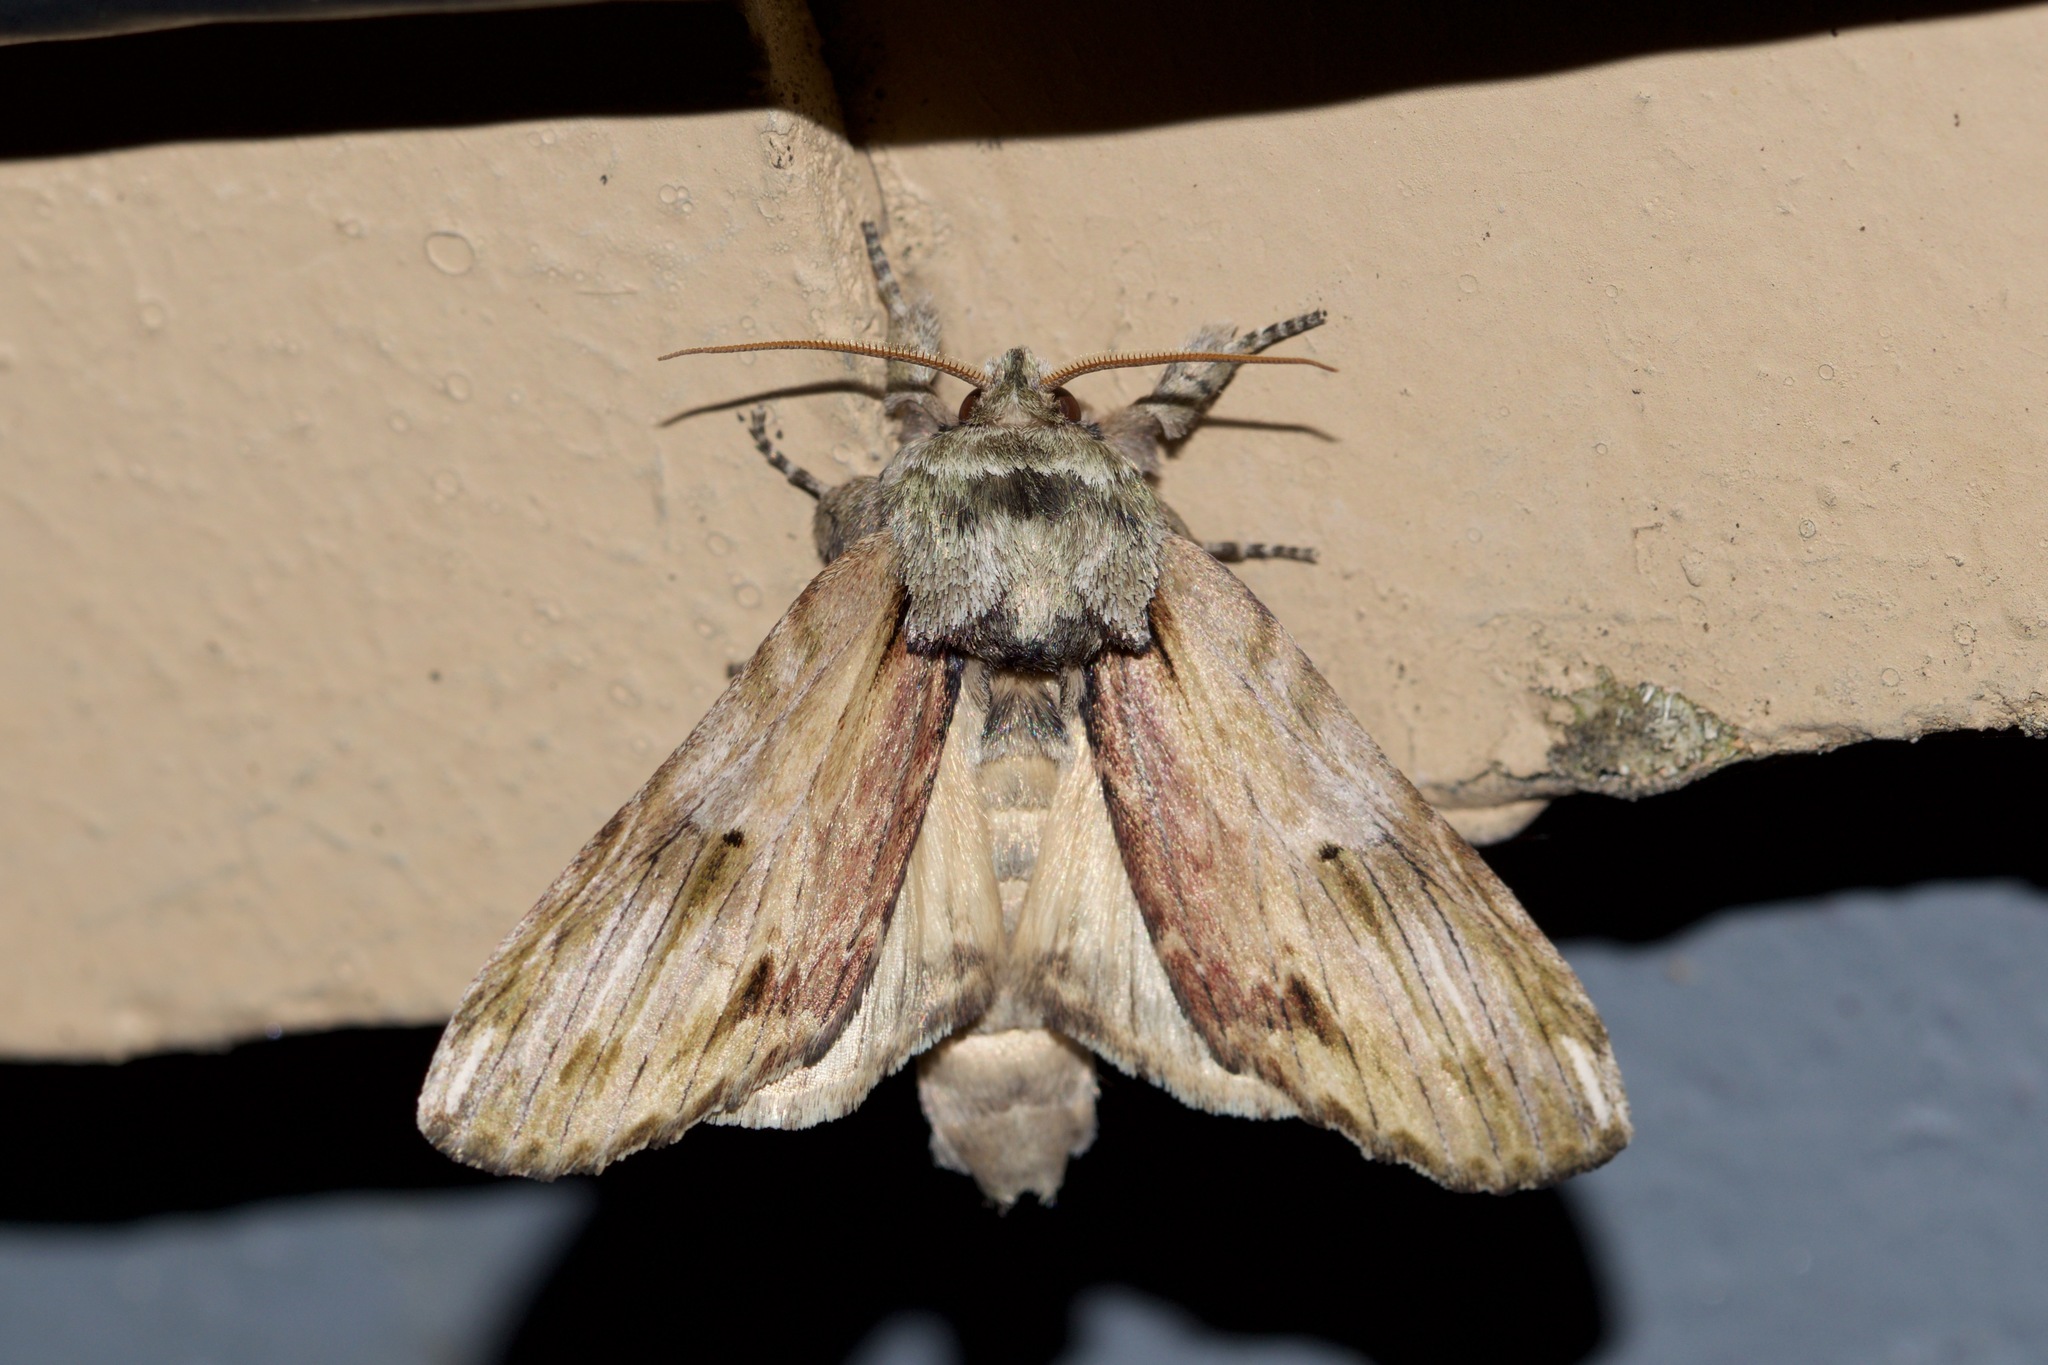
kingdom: Animalia
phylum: Arthropoda
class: Insecta
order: Lepidoptera
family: Notodontidae
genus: Schizura
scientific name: Schizura
